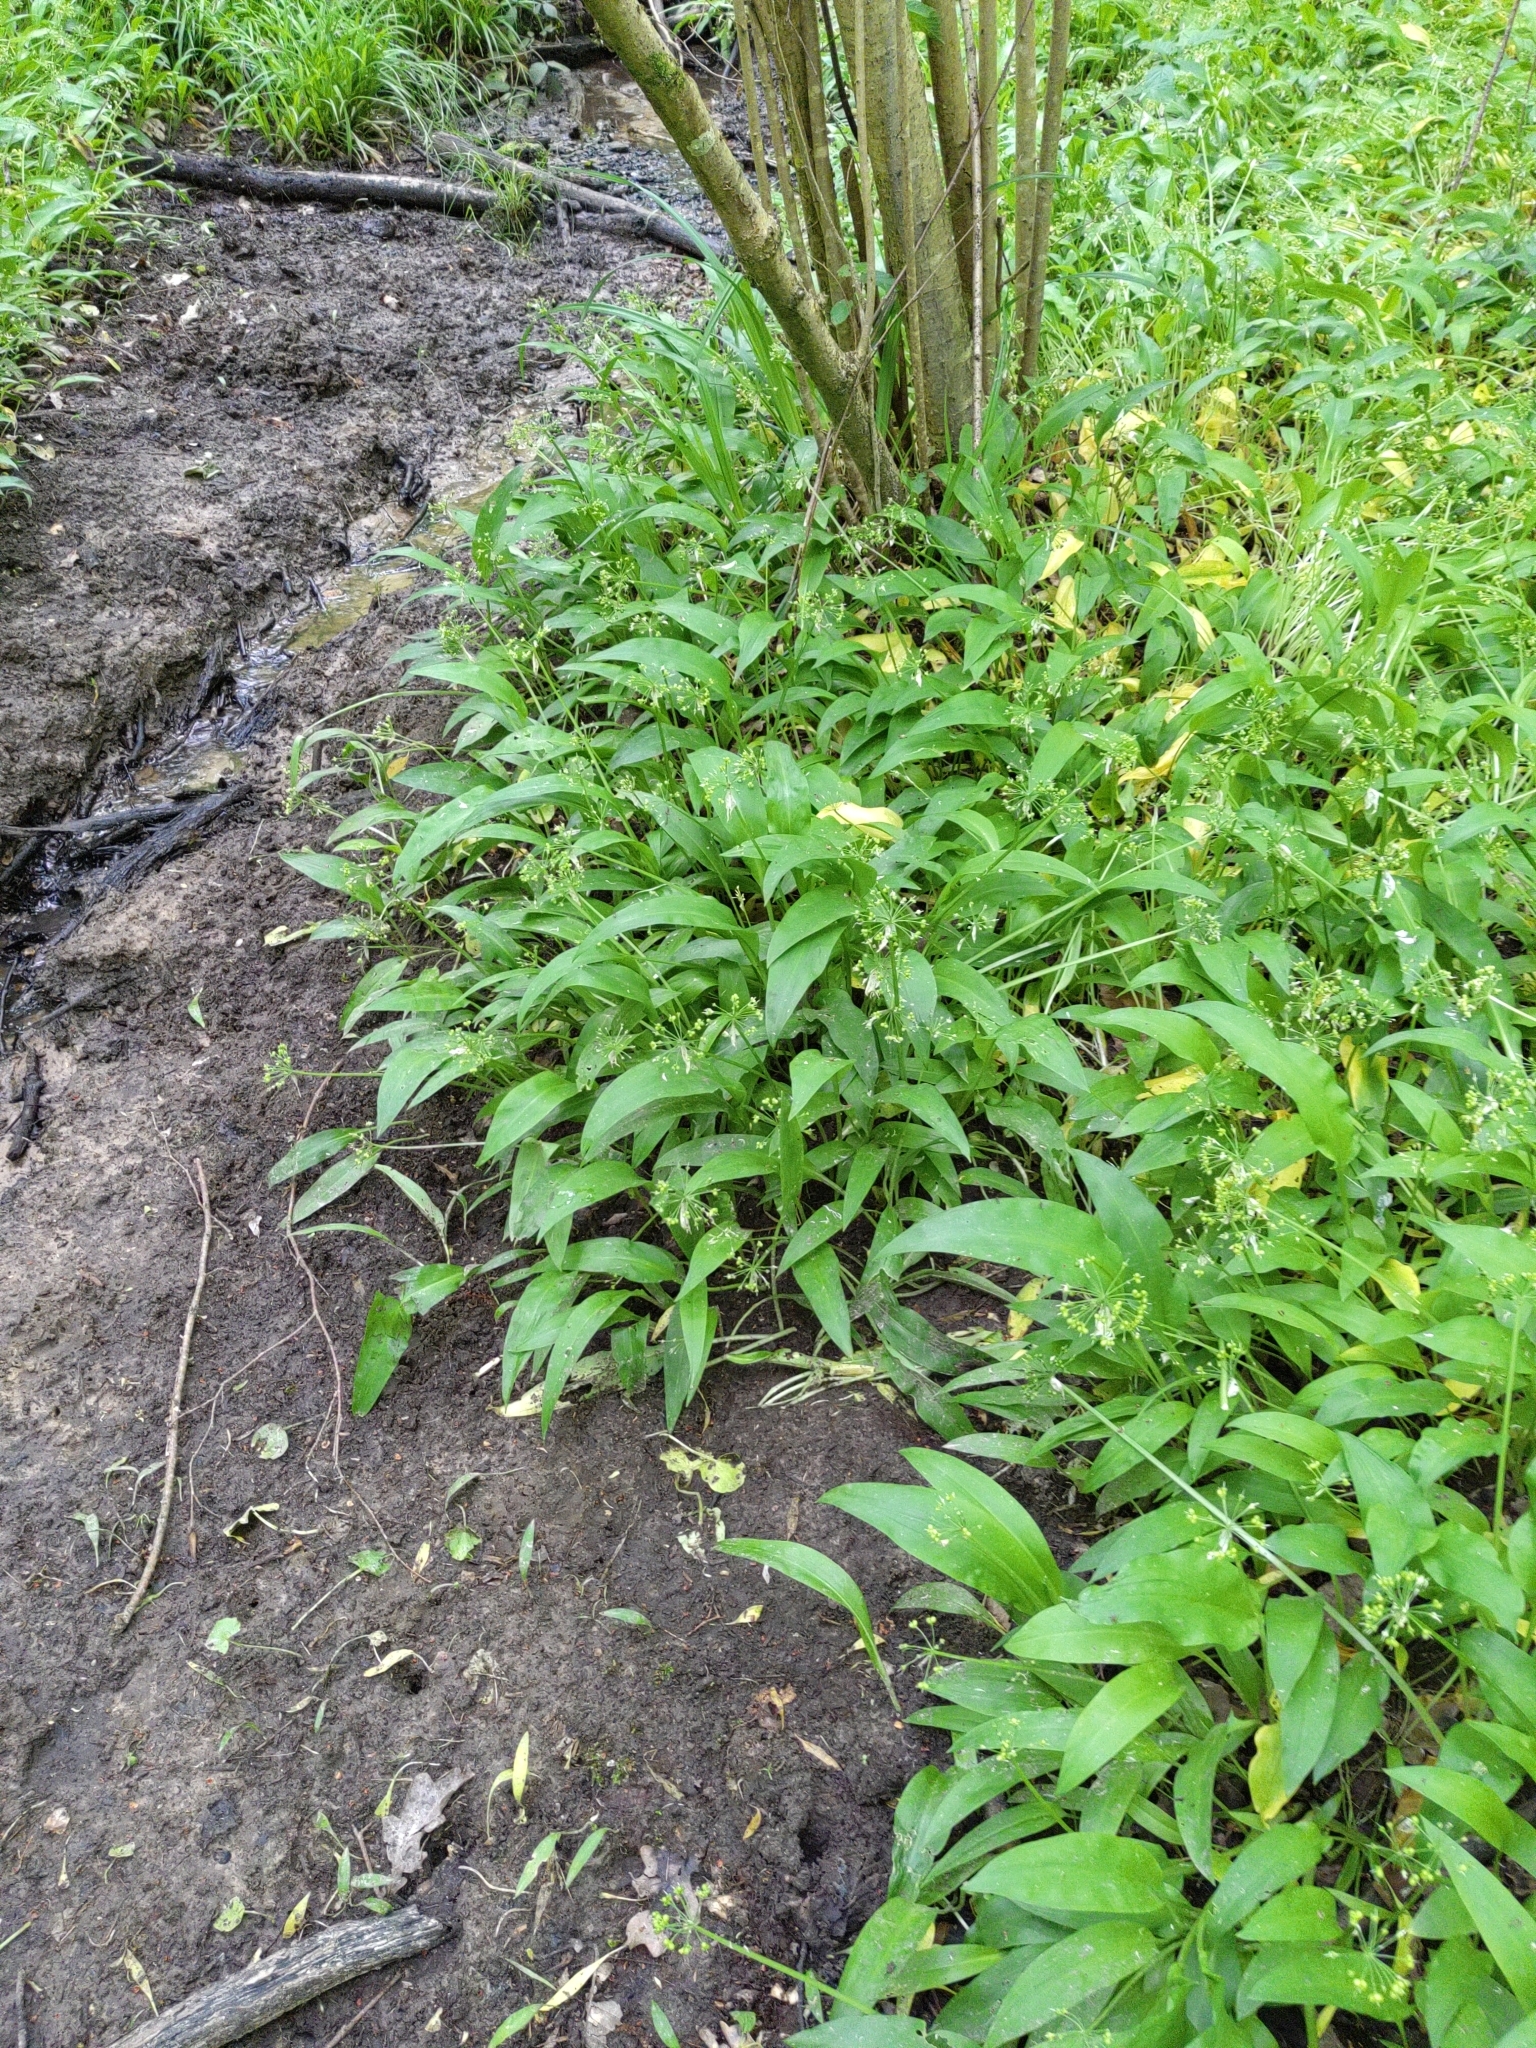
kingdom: Plantae
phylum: Tracheophyta
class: Liliopsida
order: Asparagales
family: Amaryllidaceae
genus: Allium
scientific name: Allium ursinum
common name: Ramsons
